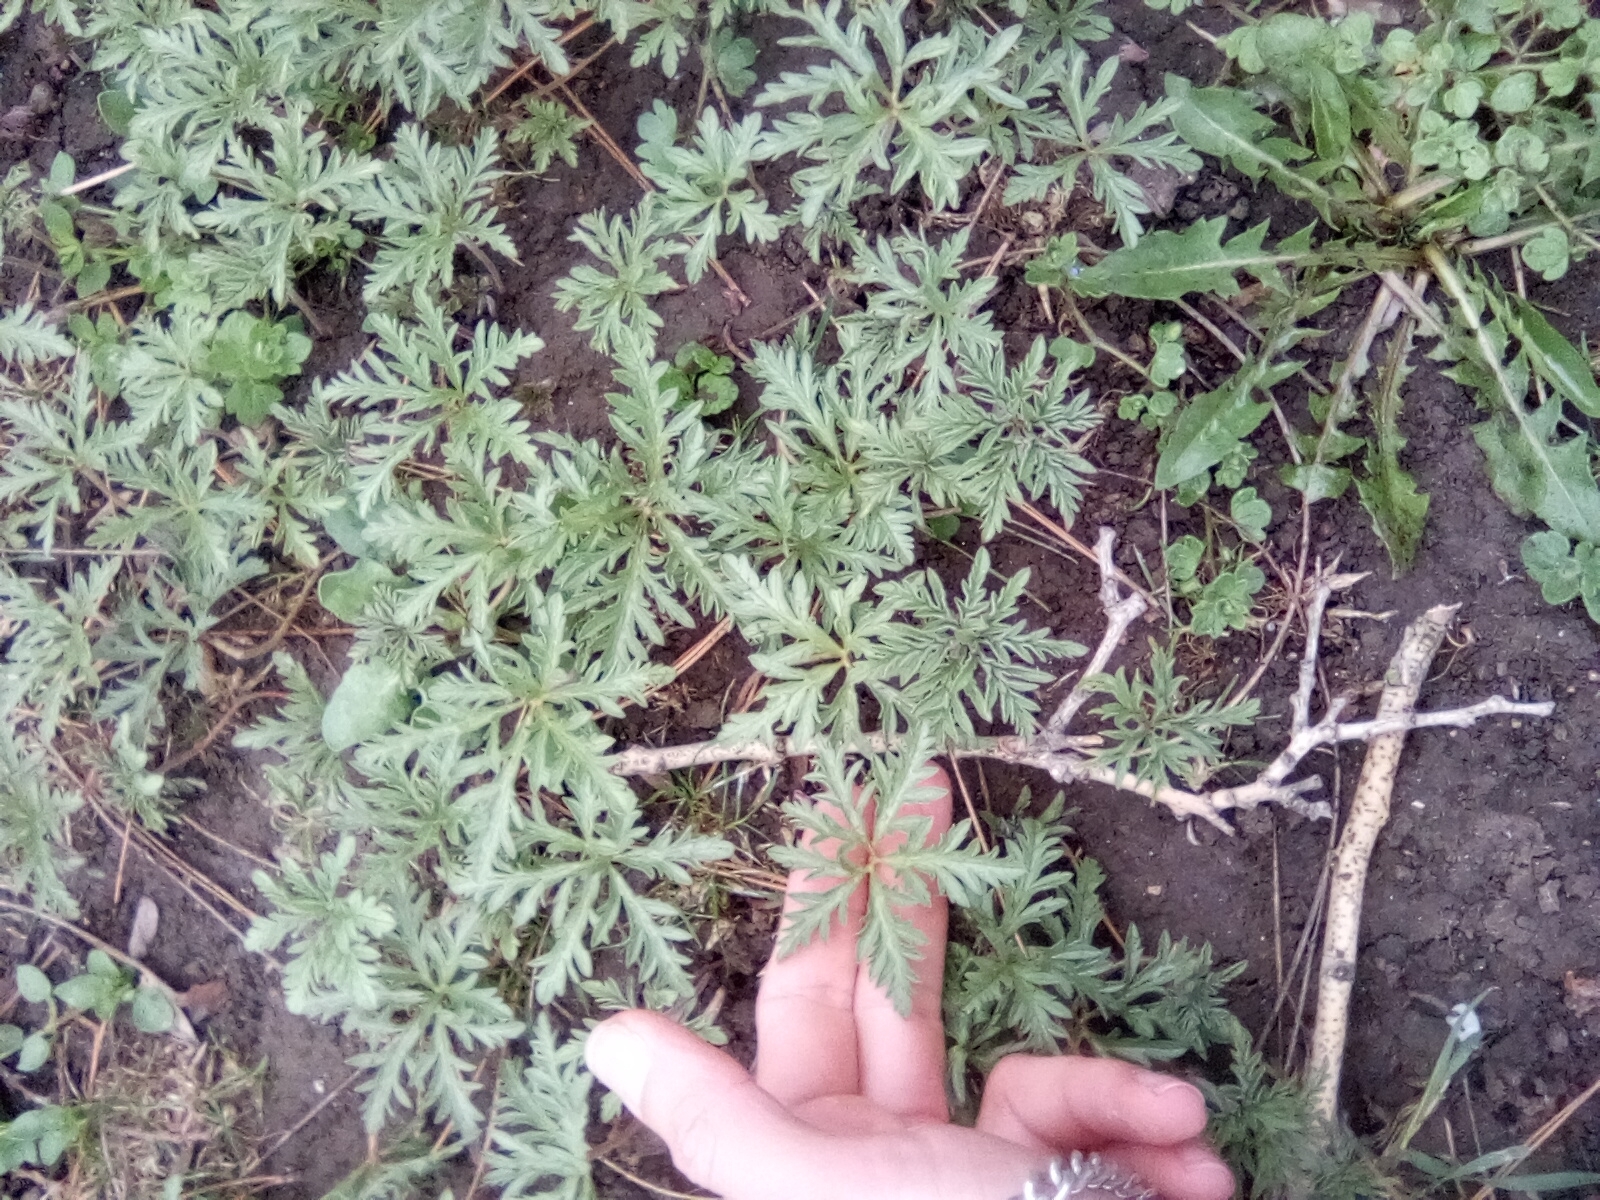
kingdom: Plantae
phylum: Tracheophyta
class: Magnoliopsida
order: Geraniales
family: Geraniaceae
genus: Geranium
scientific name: Geranium tuberosum
